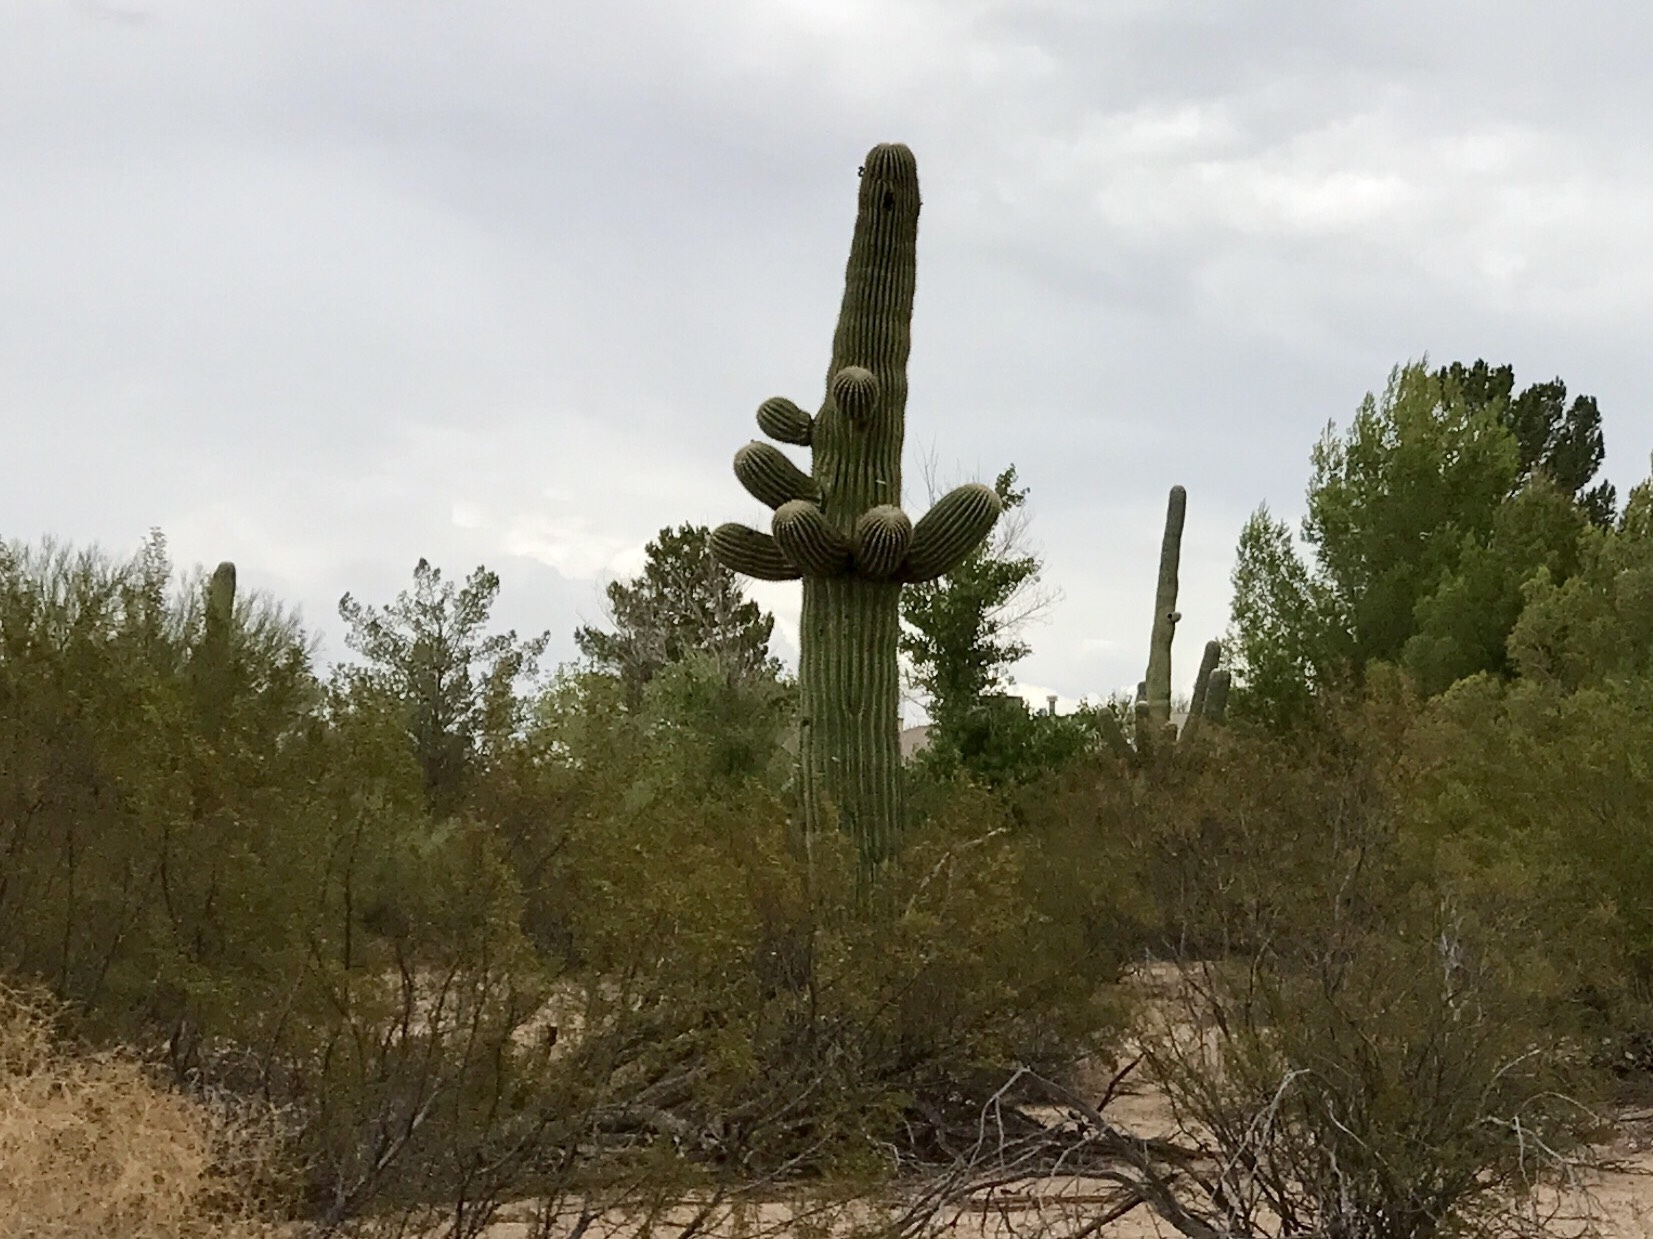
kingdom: Plantae
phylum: Tracheophyta
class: Magnoliopsida
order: Caryophyllales
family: Cactaceae
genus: Carnegiea
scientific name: Carnegiea gigantea
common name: Saguaro
